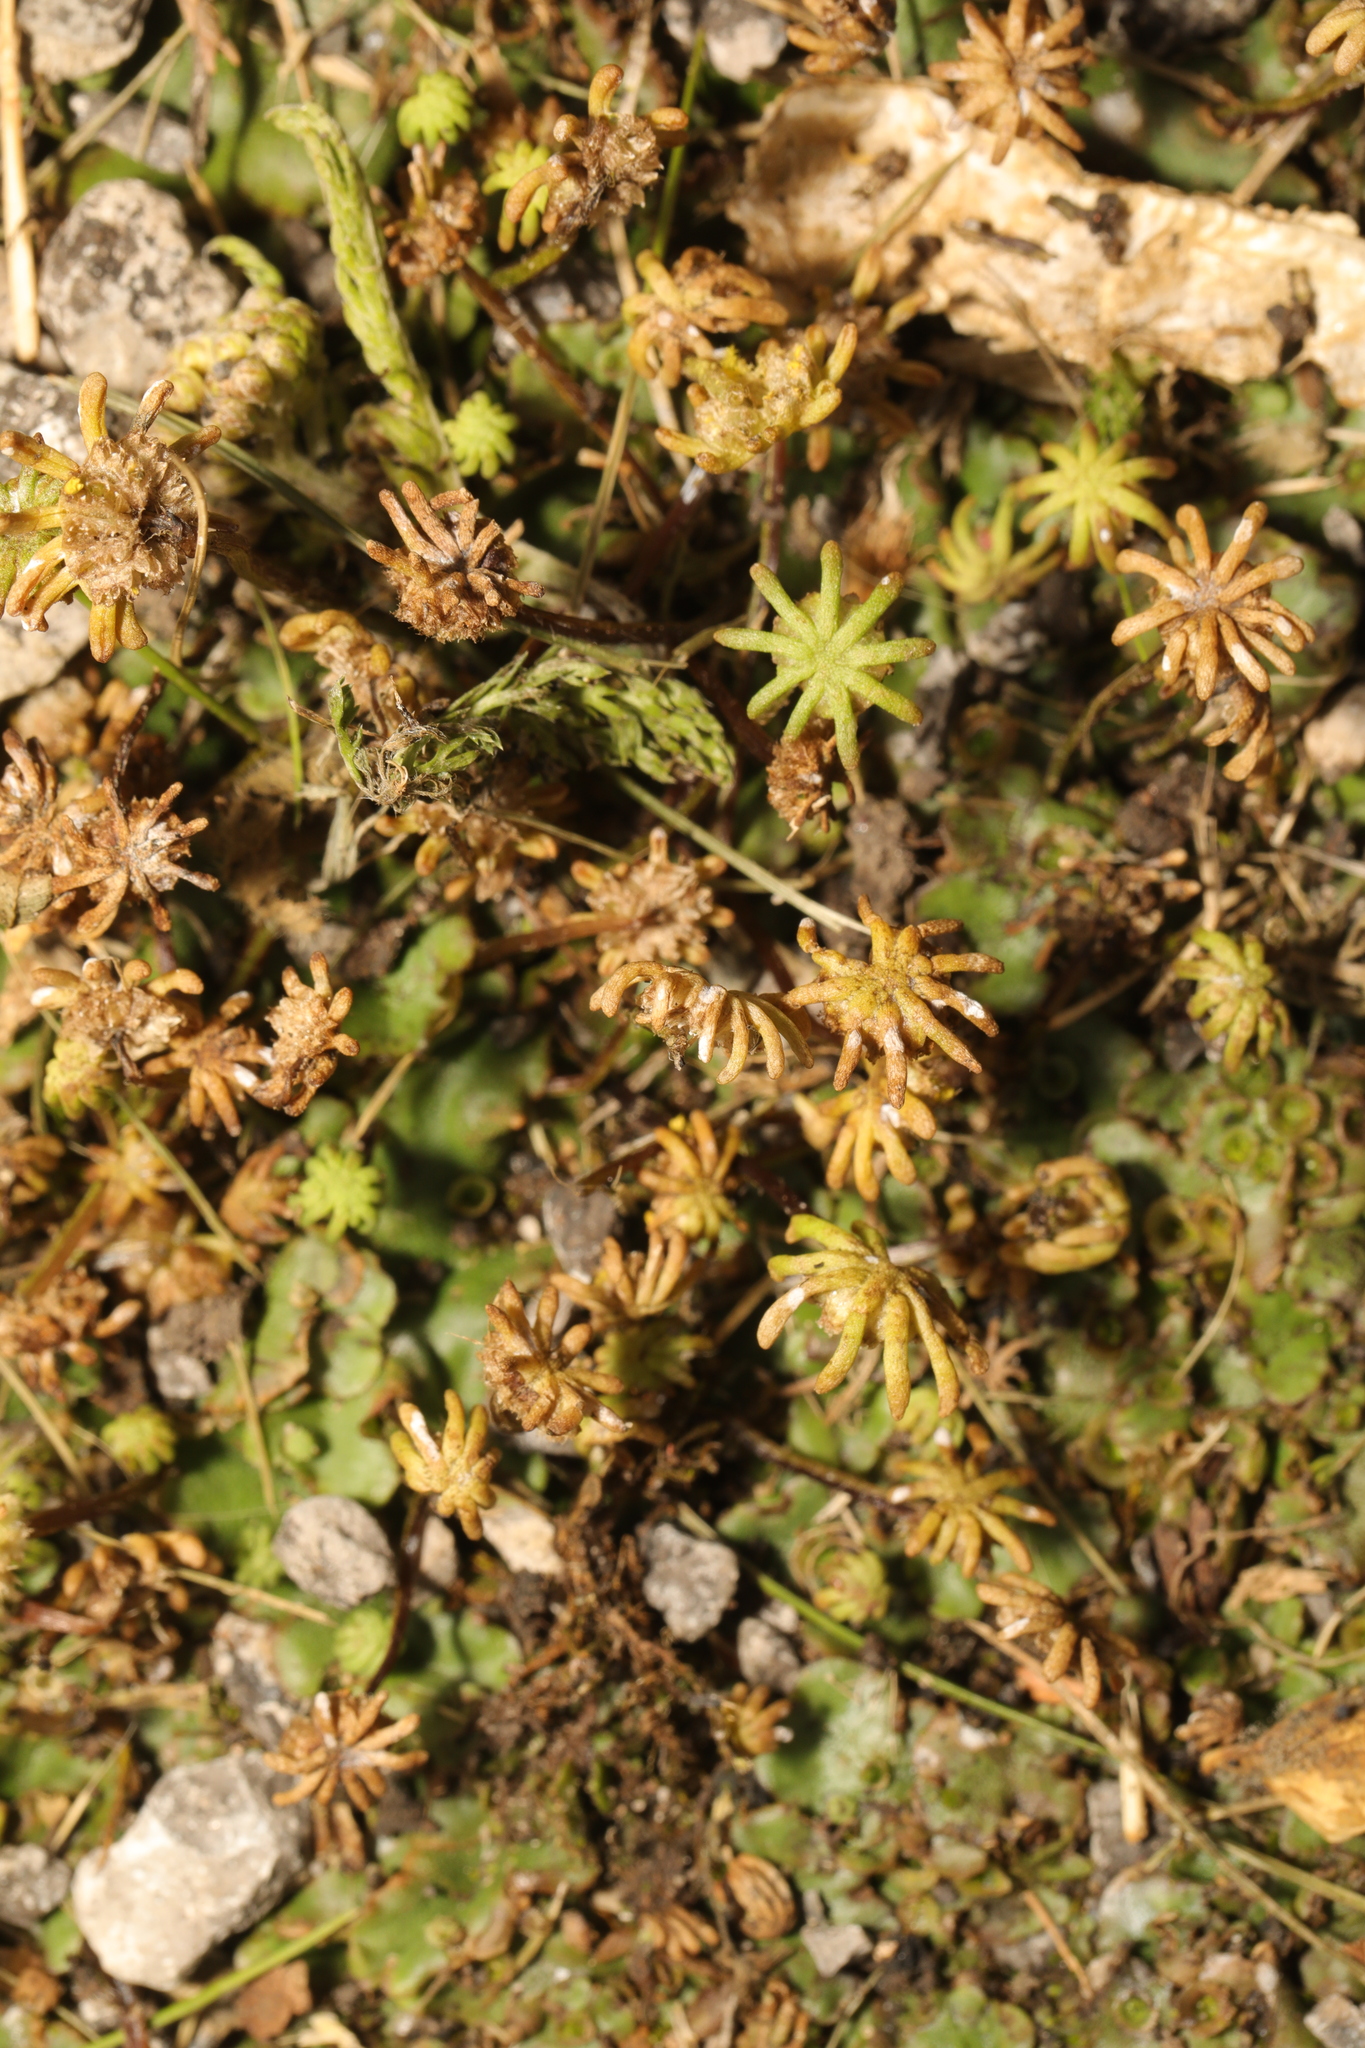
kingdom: Plantae
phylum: Marchantiophyta
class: Marchantiopsida
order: Marchantiales
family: Marchantiaceae
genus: Marchantia
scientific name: Marchantia polymorpha
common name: Common liverwort
